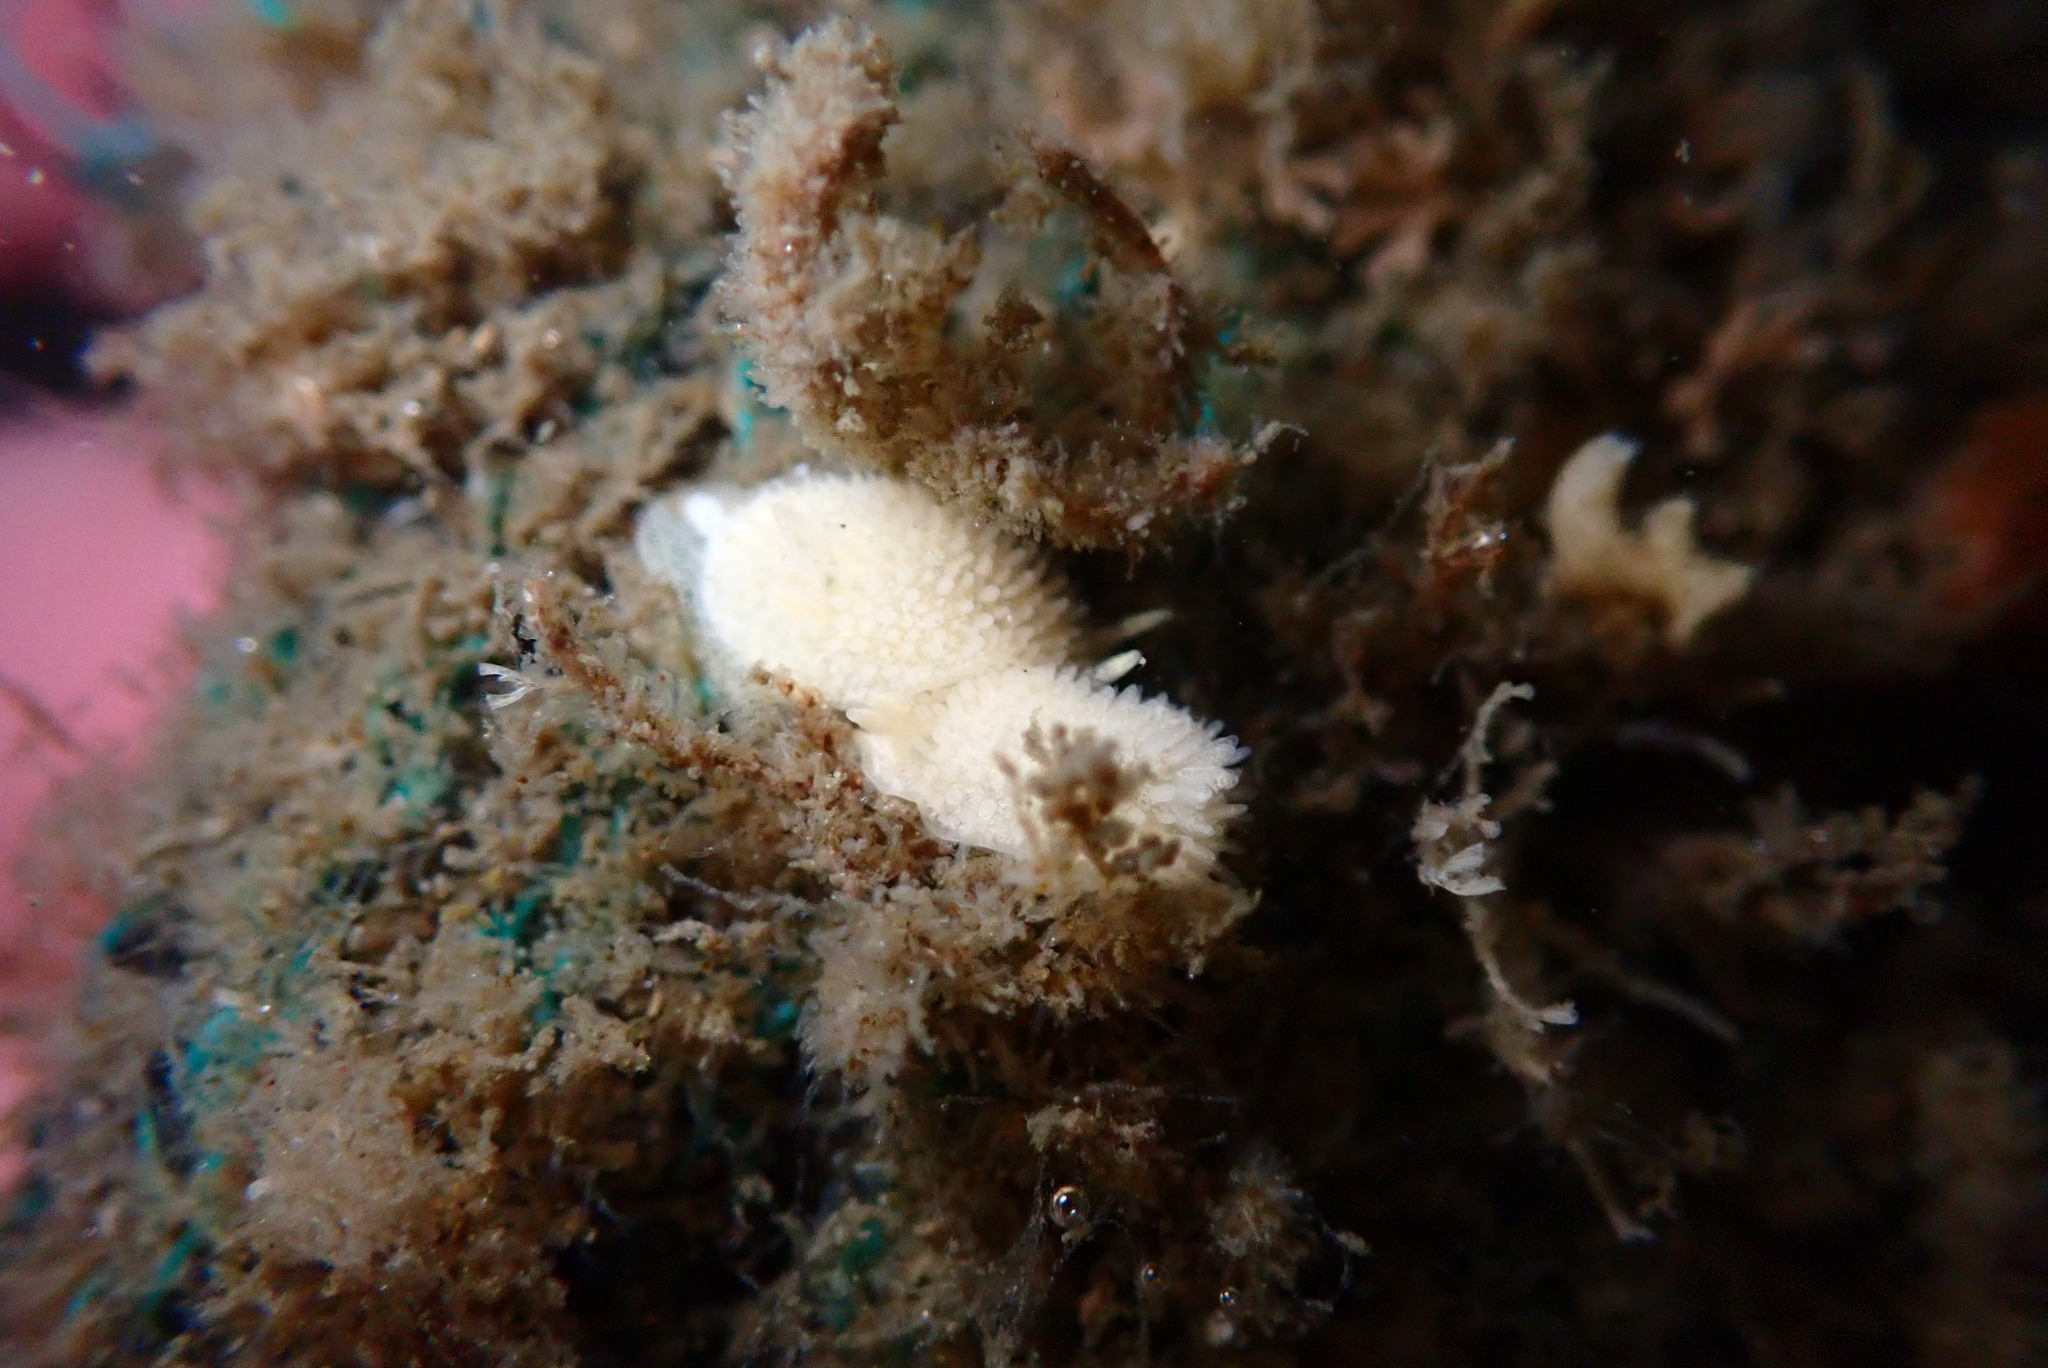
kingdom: Animalia
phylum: Mollusca
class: Gastropoda
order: Nudibranchia
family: Calycidorididae
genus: Diaphorodoris
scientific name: Diaphorodoris lirulatocauda
